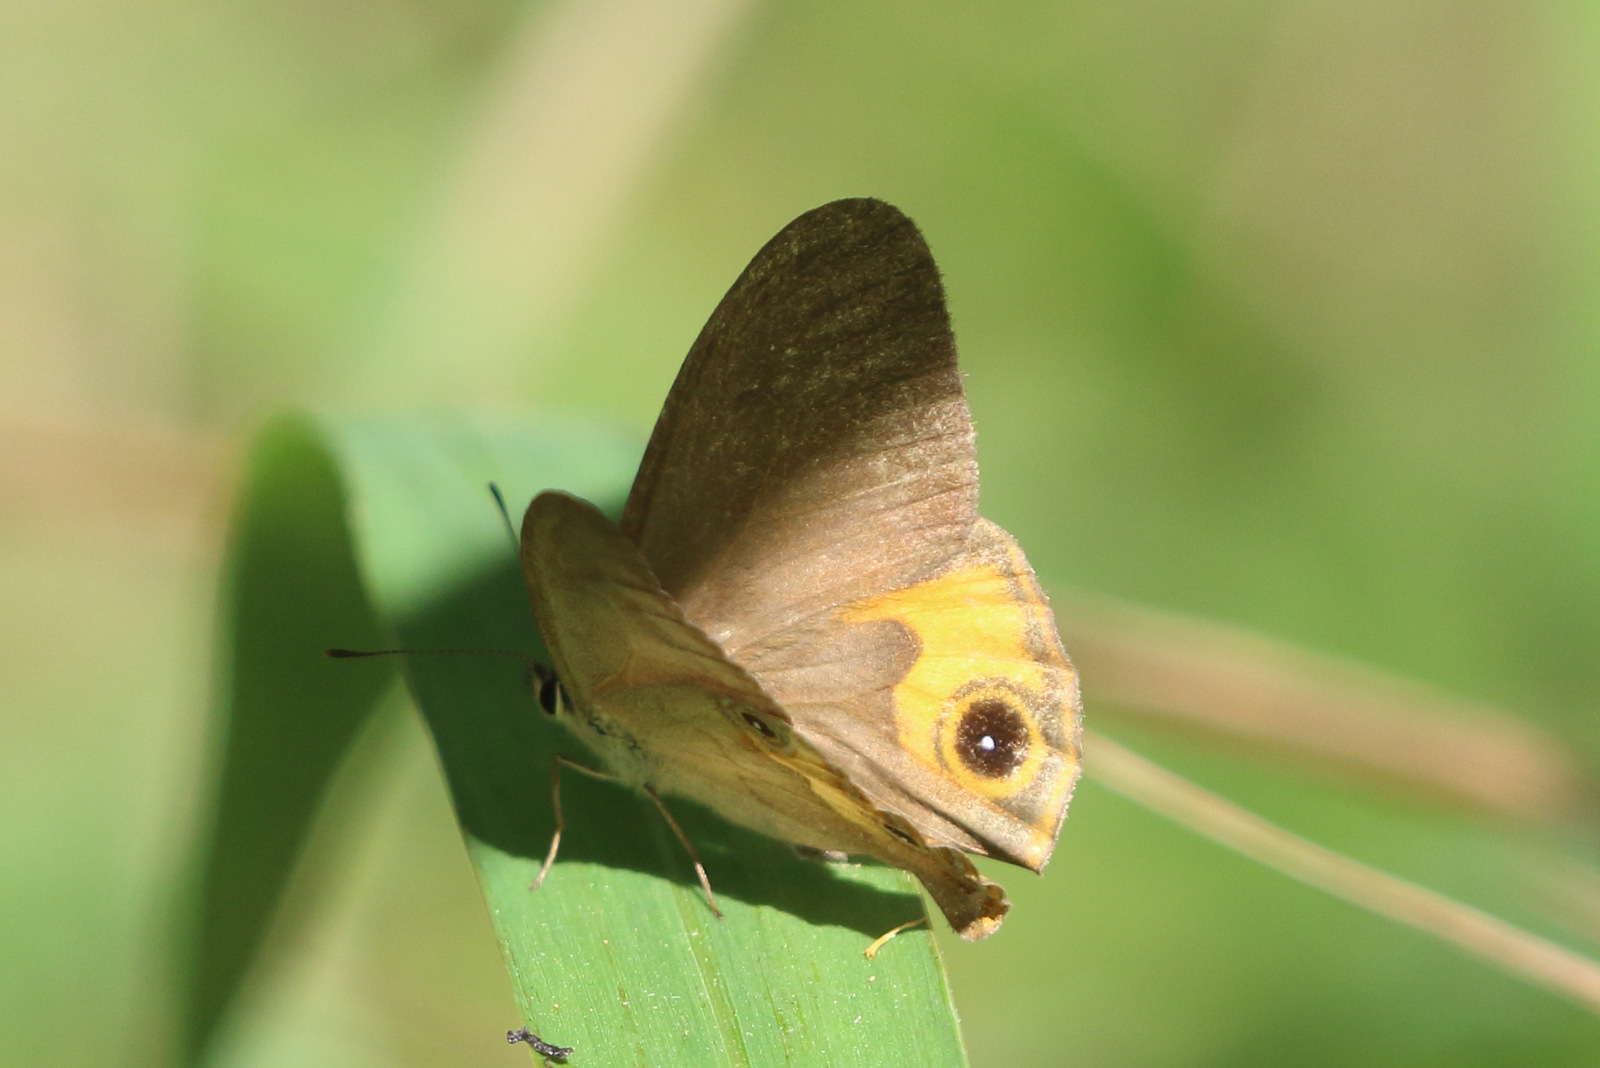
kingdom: Animalia
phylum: Arthropoda
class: Insecta
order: Lepidoptera
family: Nymphalidae
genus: Hypocysta
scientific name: Hypocysta metirius
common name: Brown ringlet
